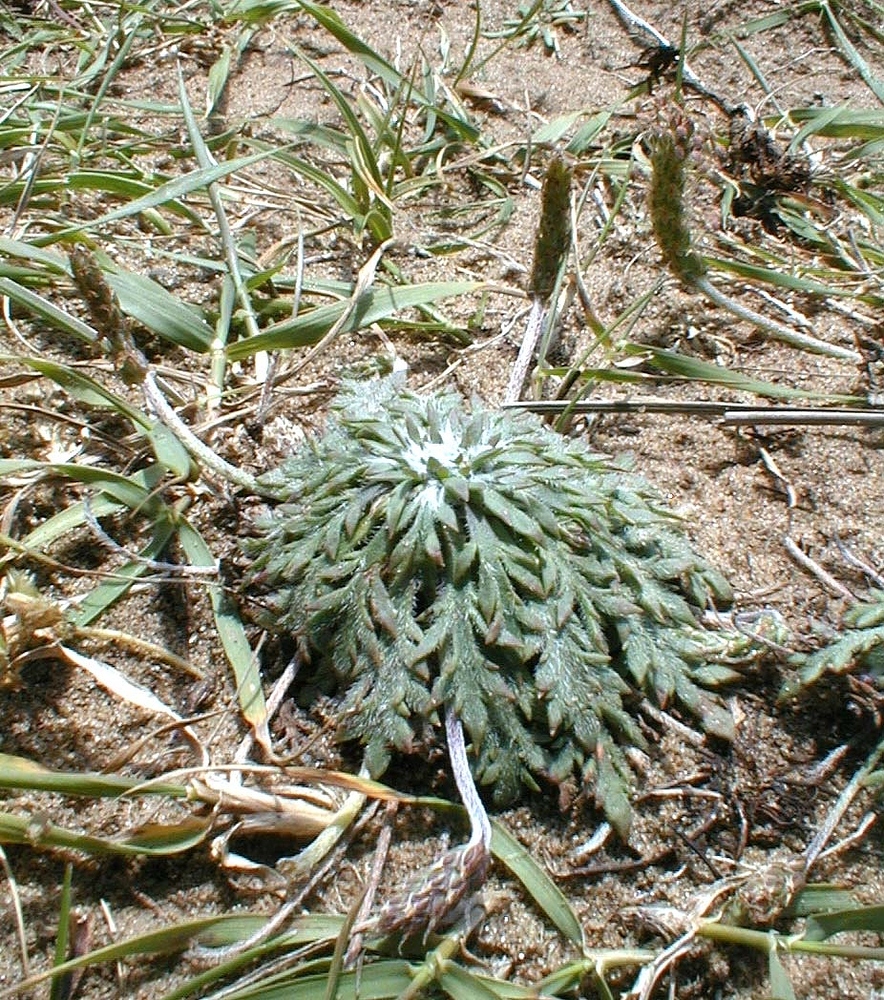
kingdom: Plantae
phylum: Tracheophyta
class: Magnoliopsida
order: Lamiales
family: Plantaginaceae
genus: Plantago
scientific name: Plantago coronopus
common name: Buck's-horn plantain
